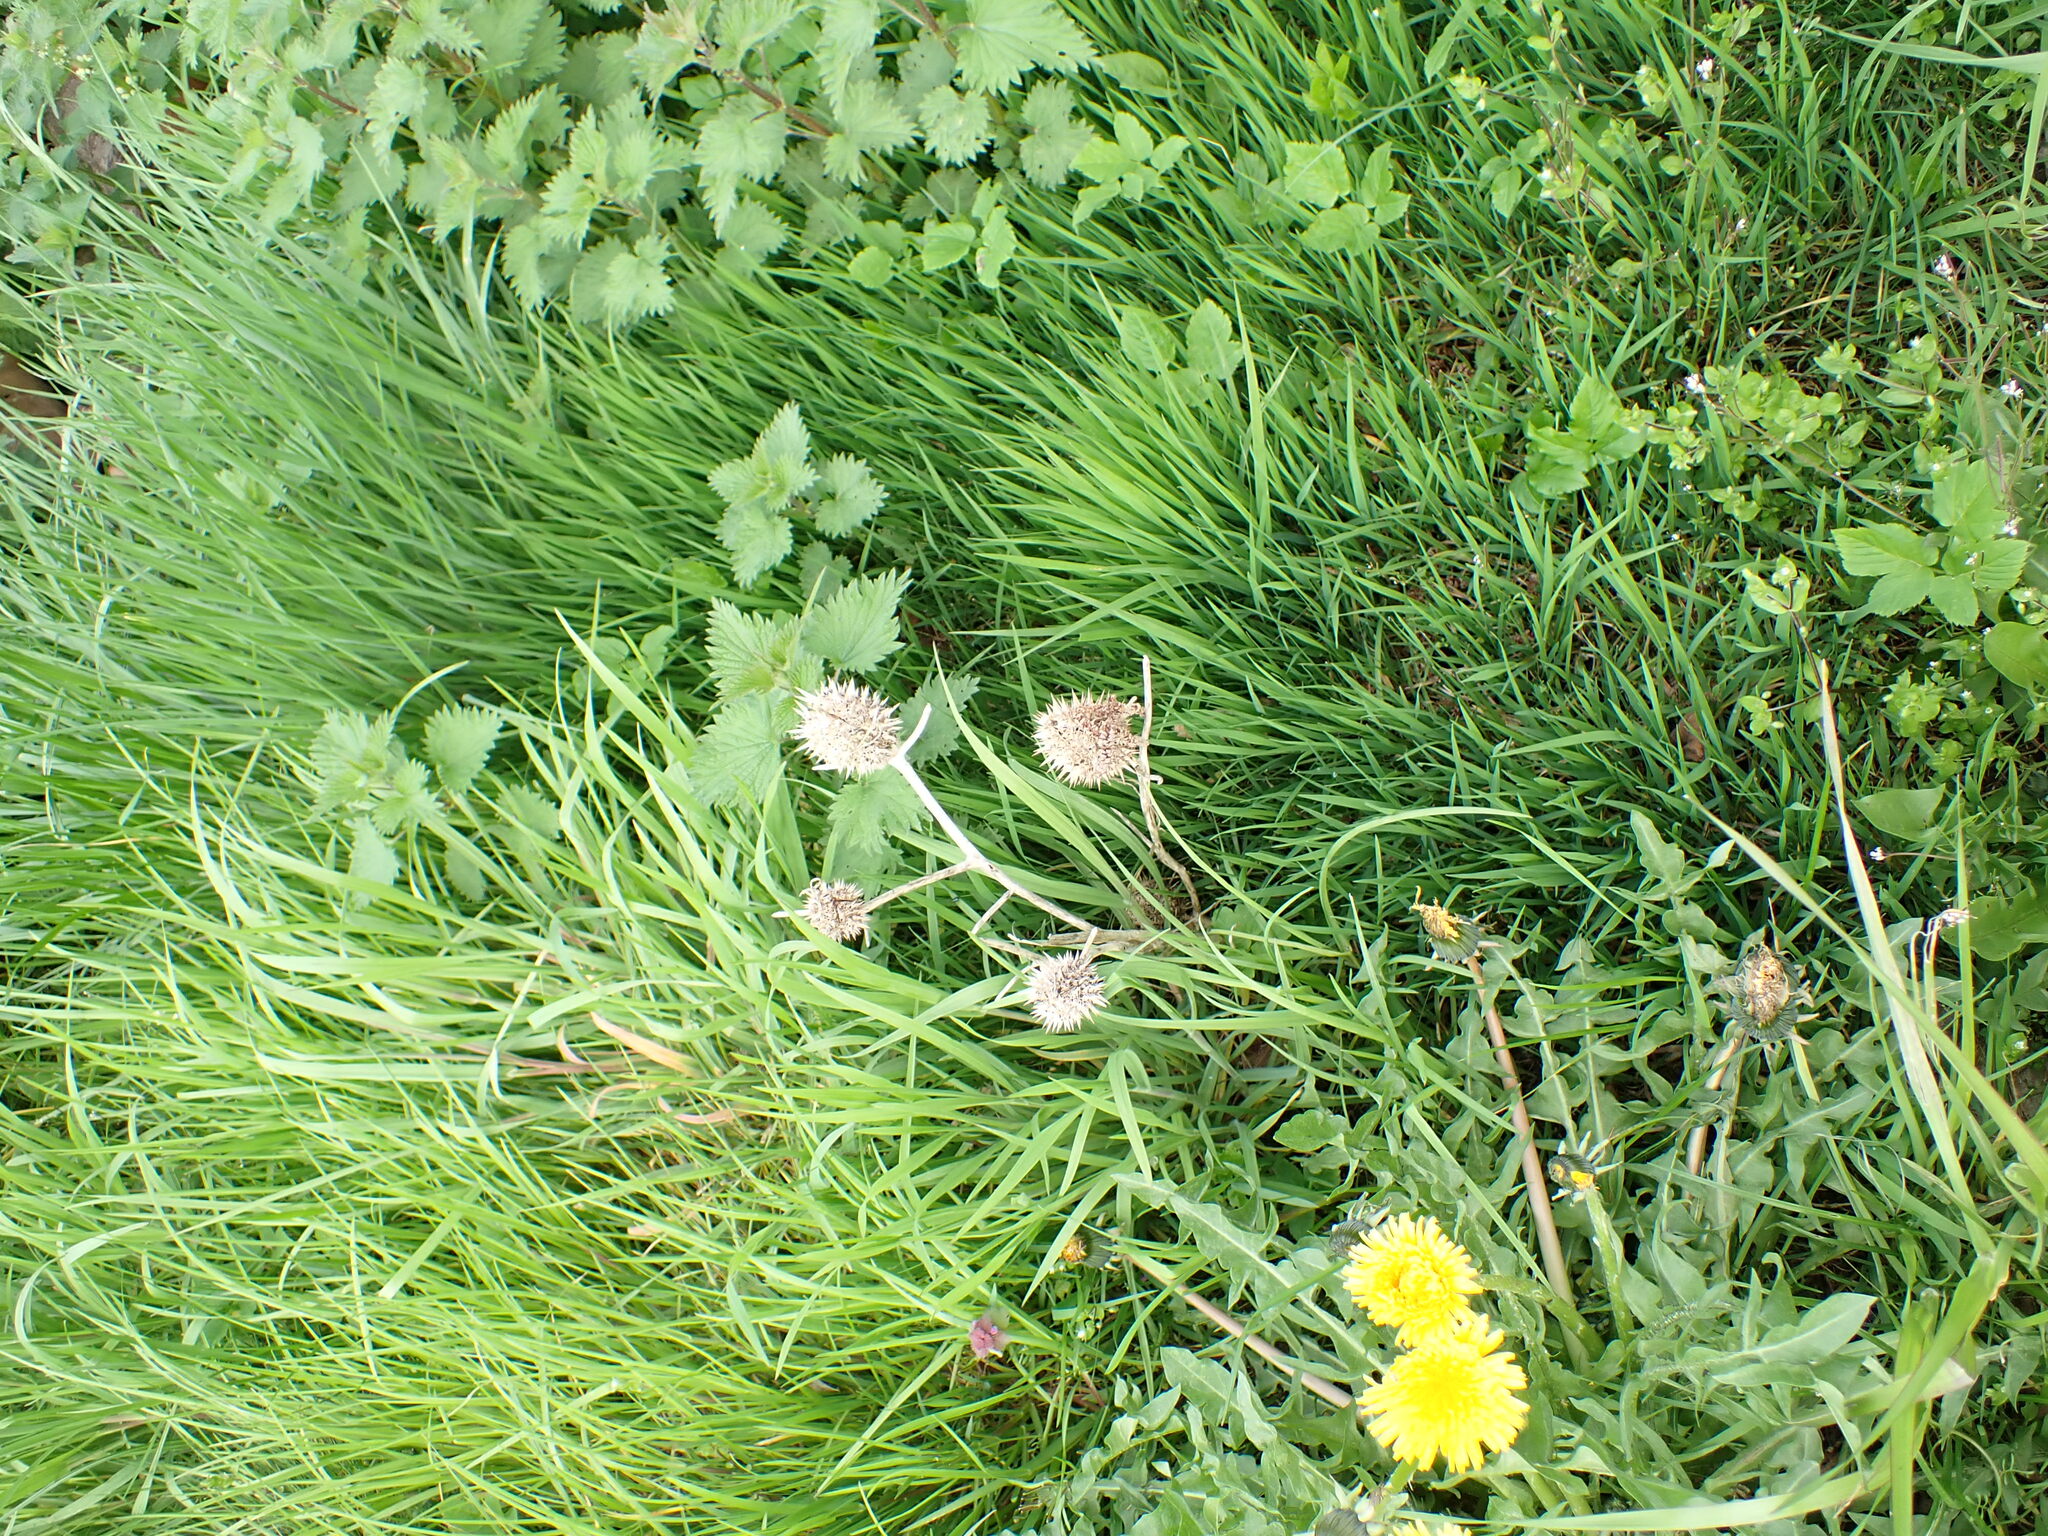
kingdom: Plantae
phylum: Tracheophyta
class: Magnoliopsida
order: Solanales
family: Solanaceae
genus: Datura
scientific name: Datura stramonium
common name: Thorn-apple
